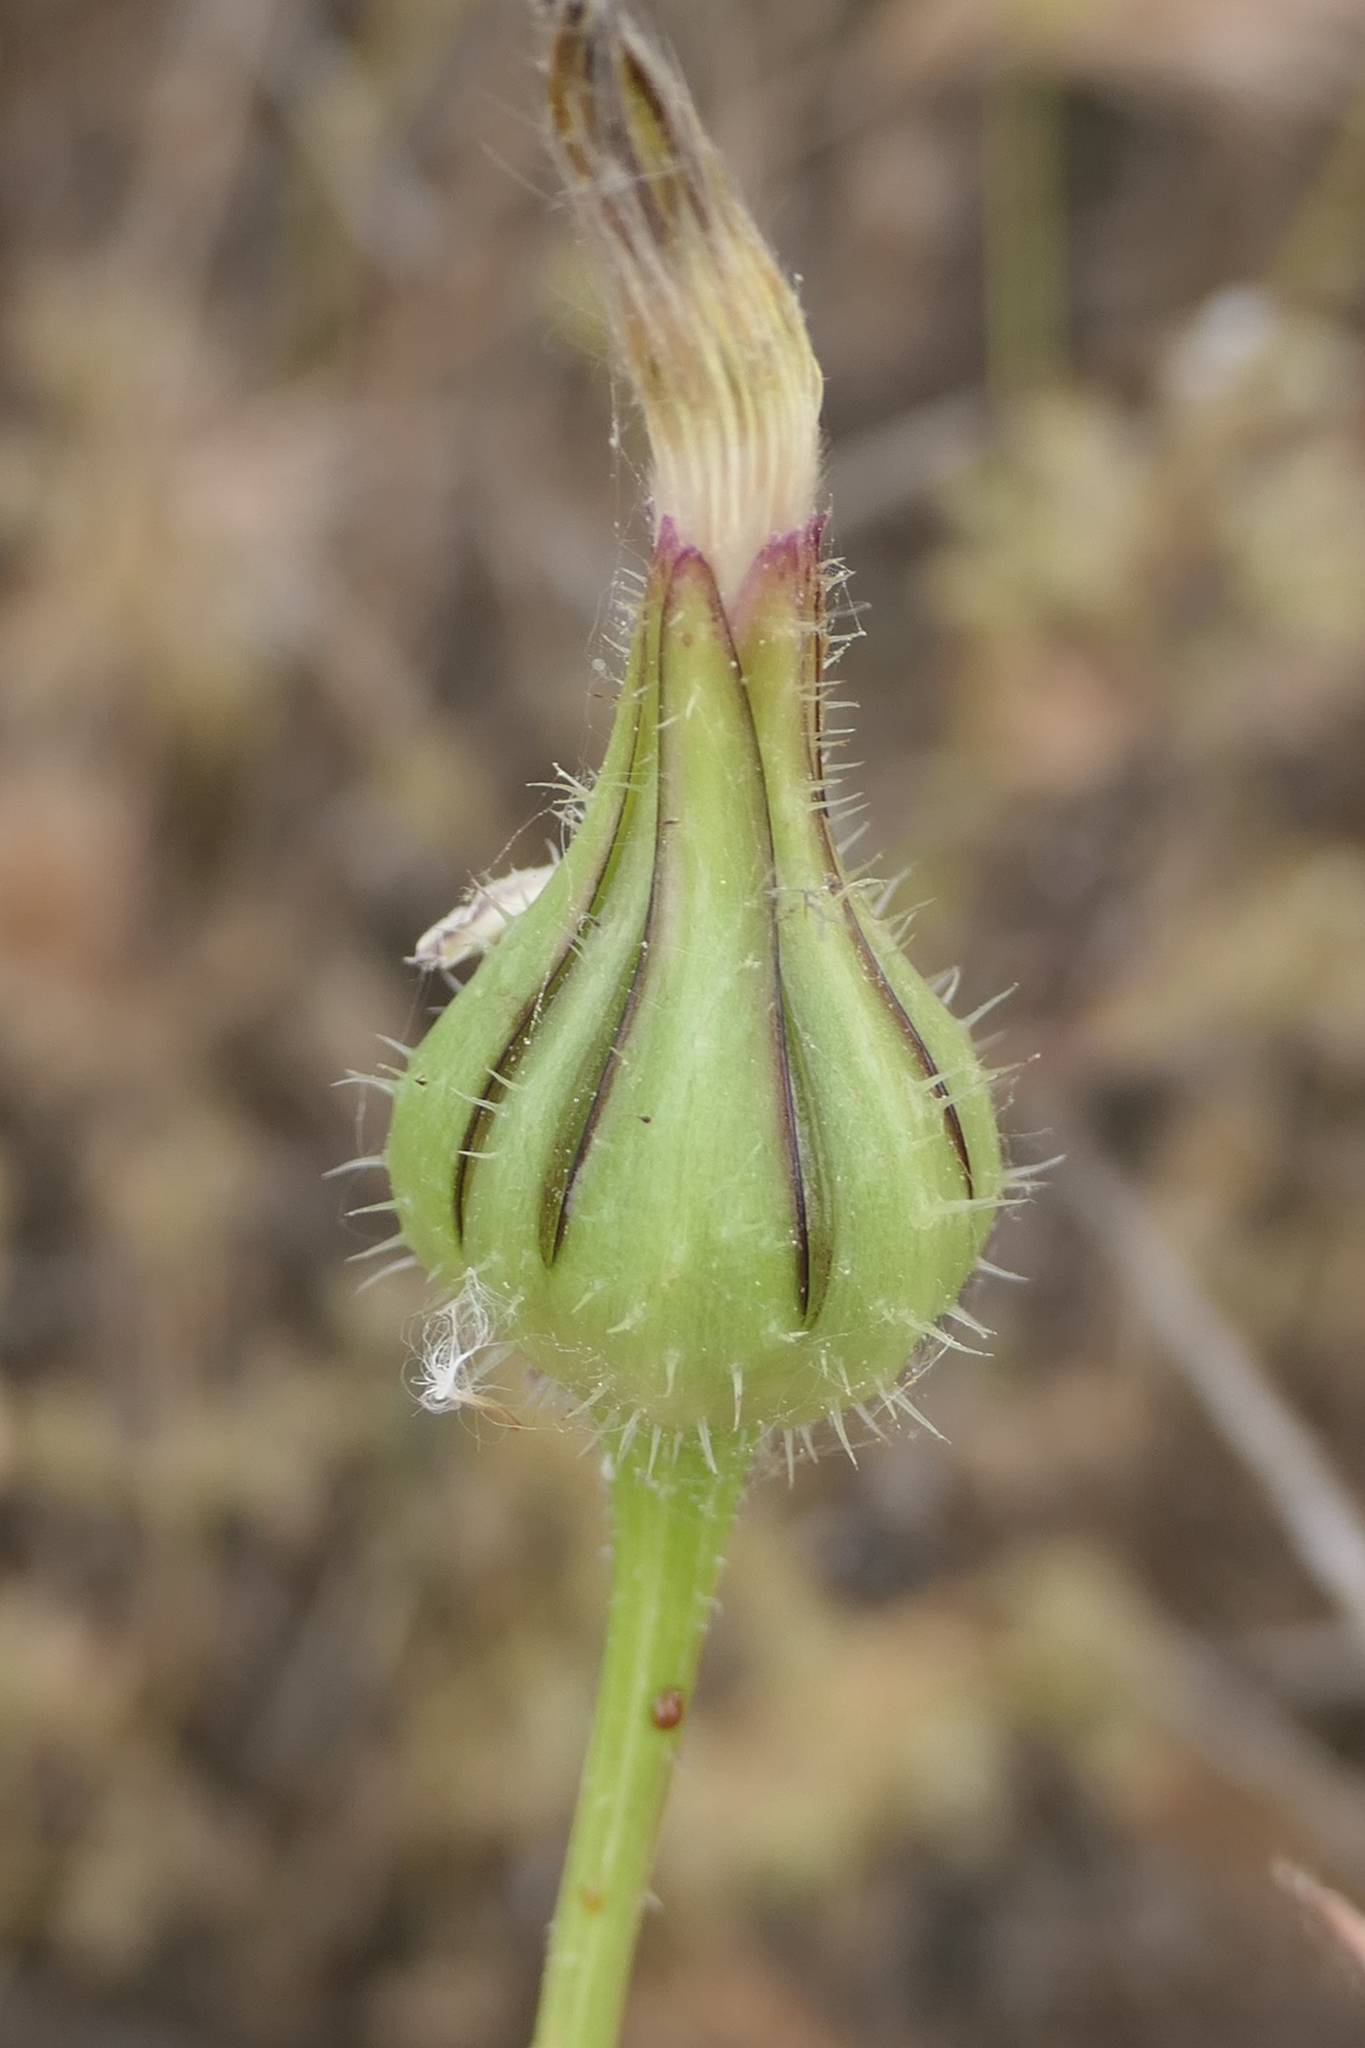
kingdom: Plantae
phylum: Tracheophyta
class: Magnoliopsida
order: Asterales
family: Asteraceae
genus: Urospermum
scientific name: Urospermum picroides
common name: False hawkbit
